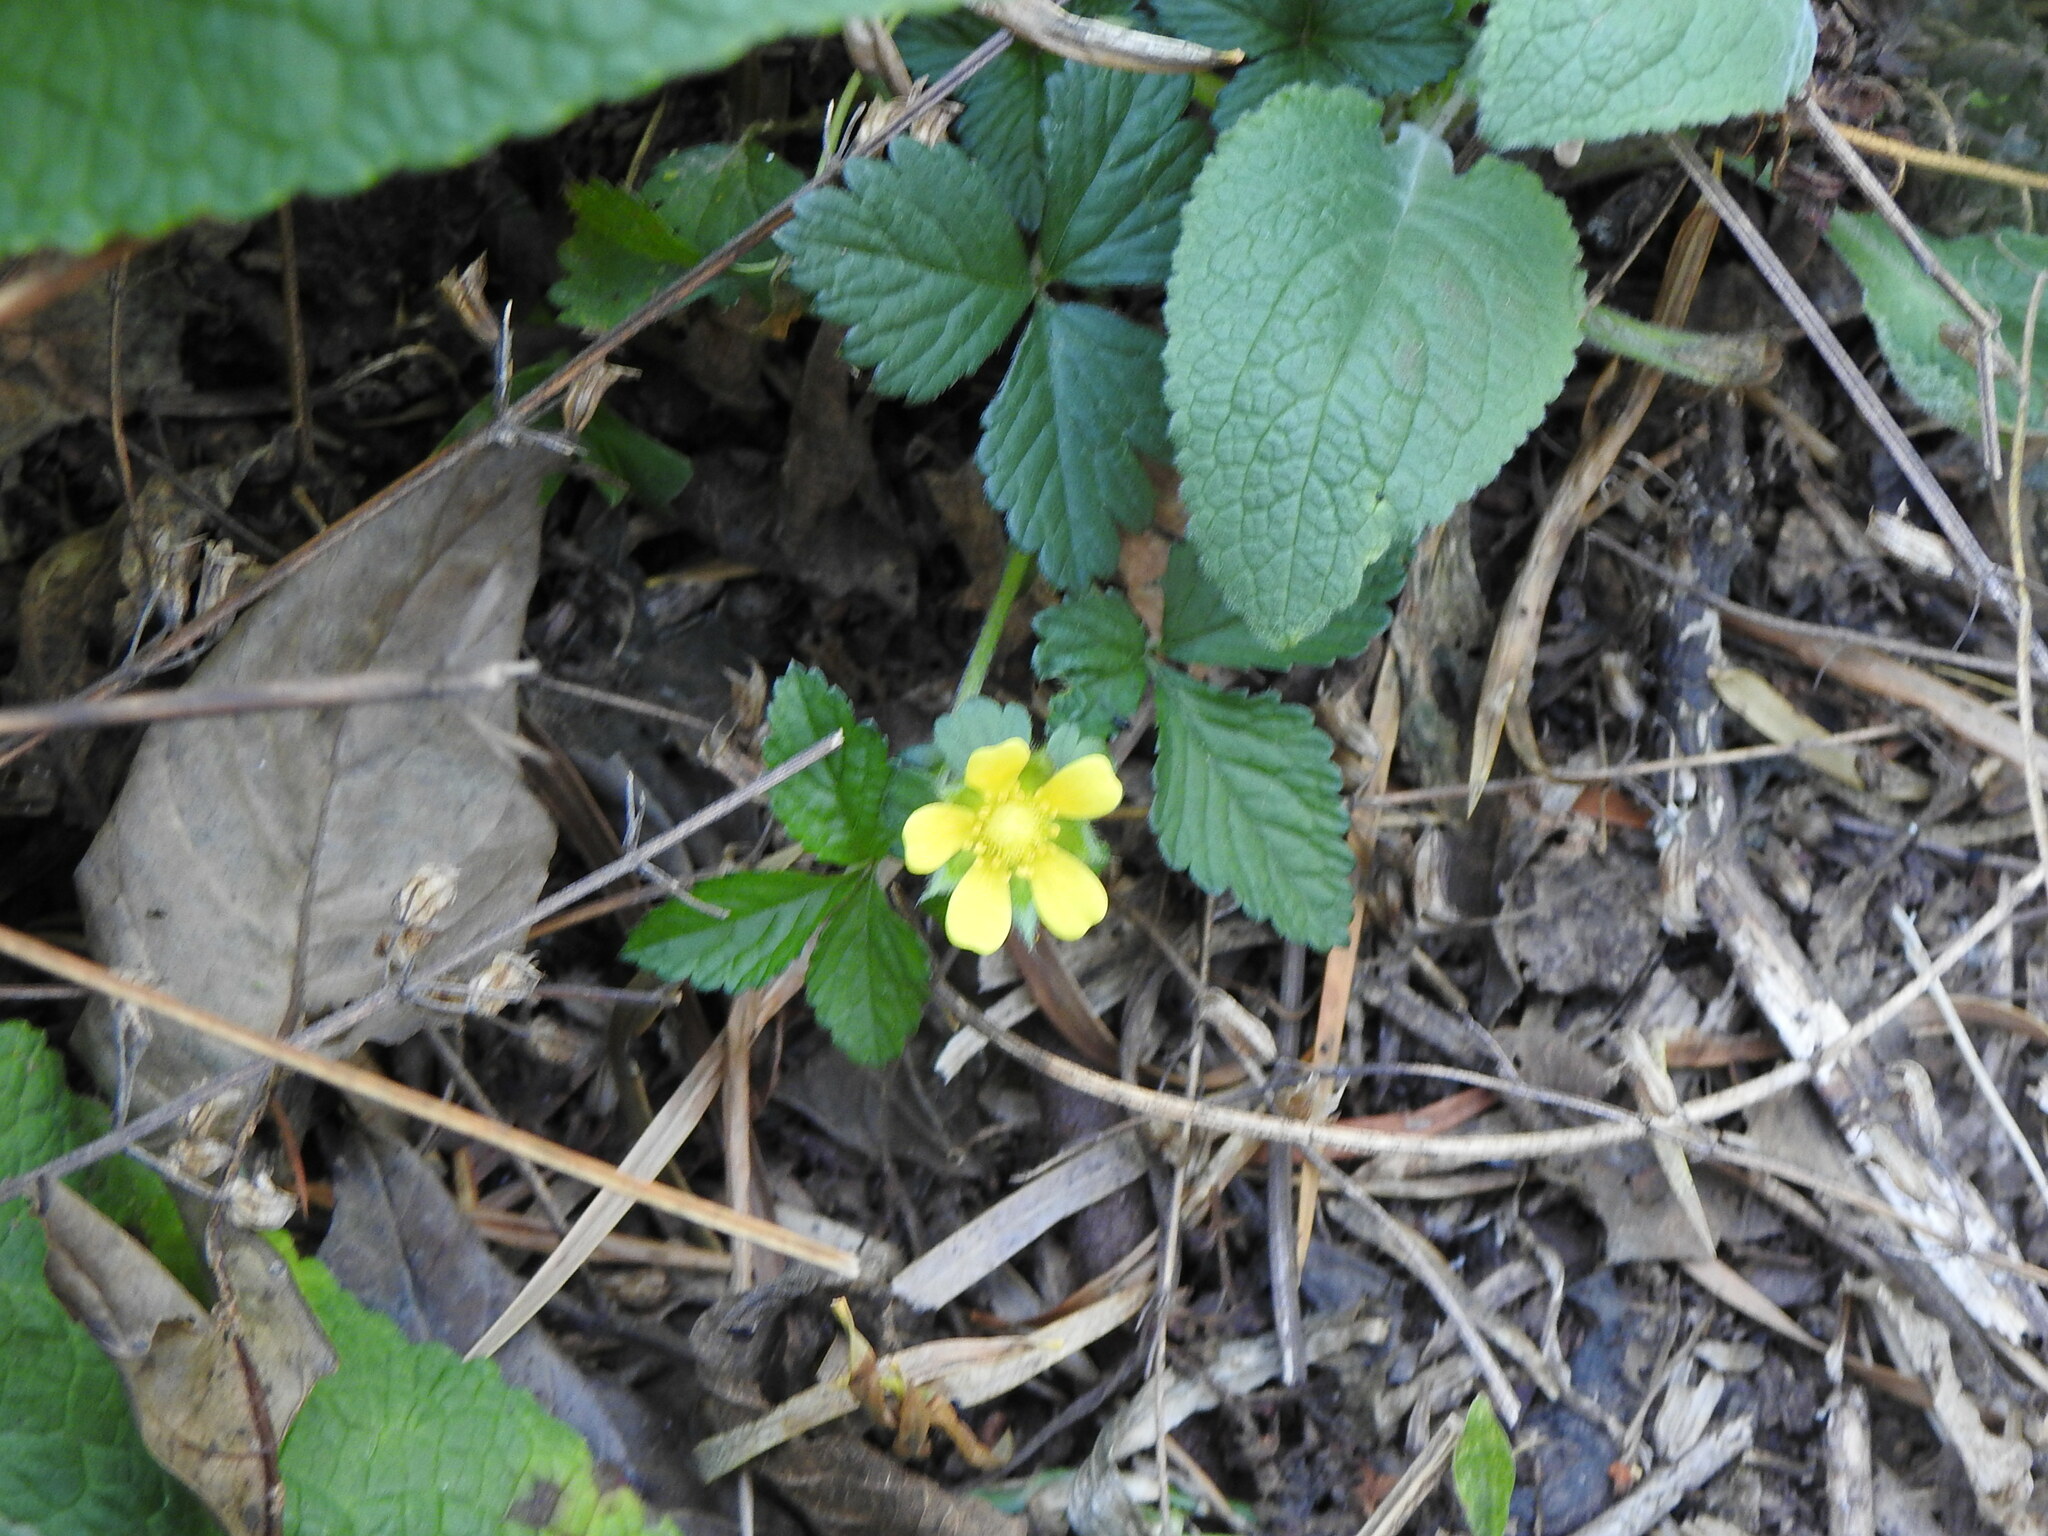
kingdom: Plantae
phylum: Tracheophyta
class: Magnoliopsida
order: Rosales
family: Rosaceae
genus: Potentilla
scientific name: Potentilla indica
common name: Yellow-flowered strawberry
